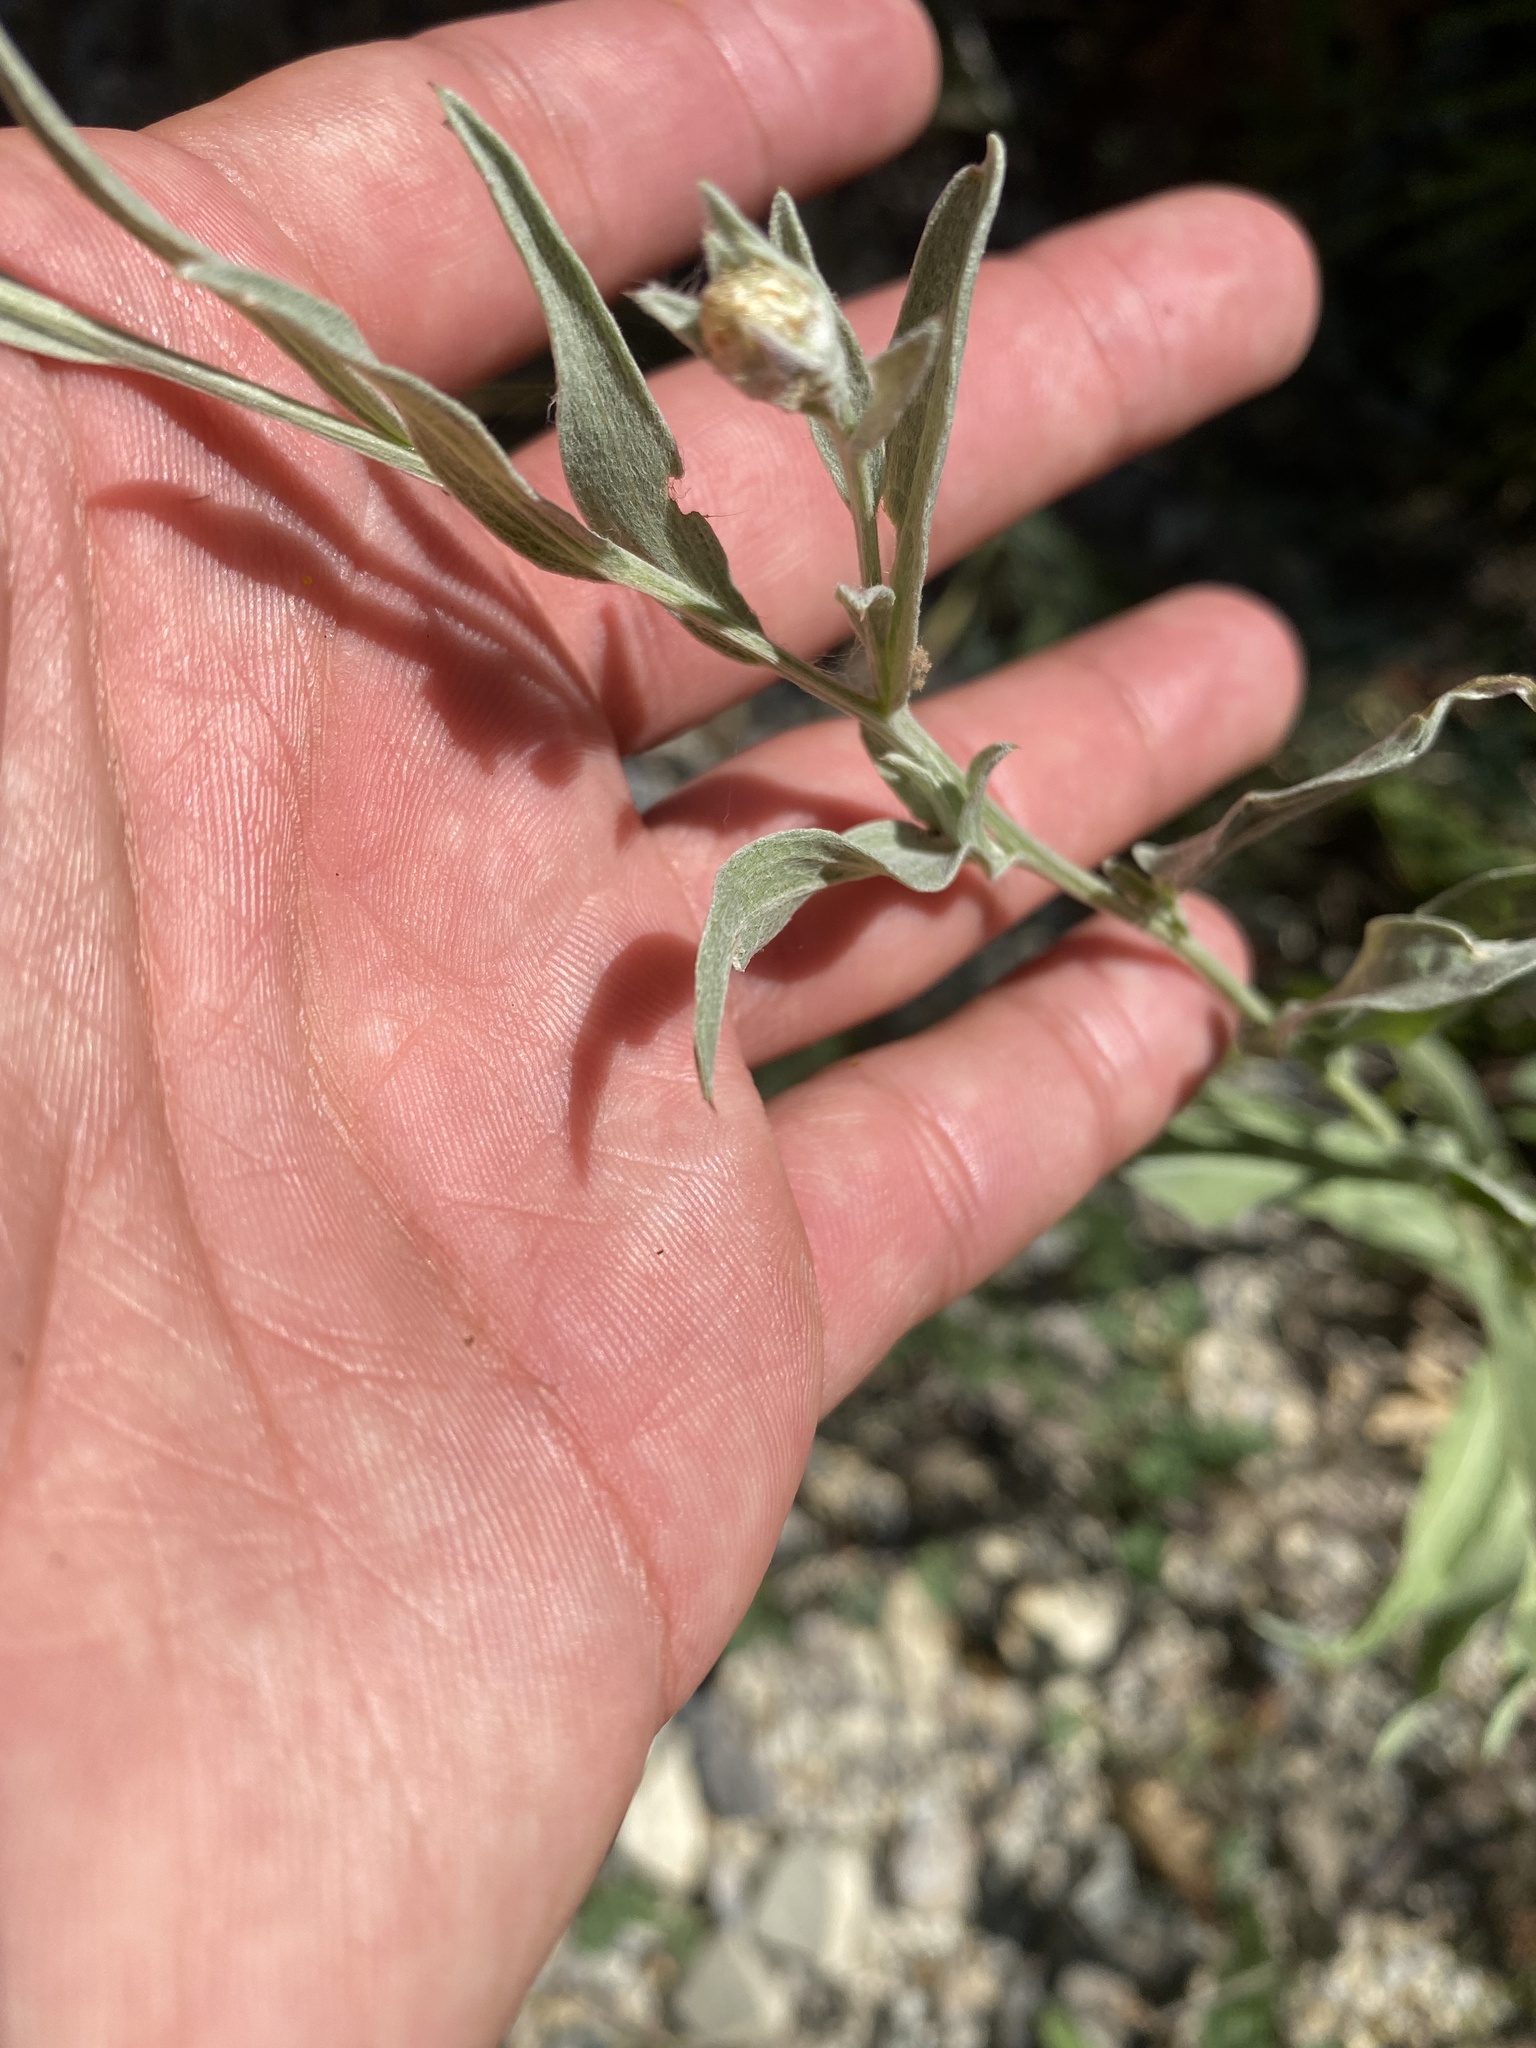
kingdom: Plantae
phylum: Tracheophyta
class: Magnoliopsida
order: Asterales
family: Asteraceae
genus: Centaurea
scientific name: Centaurea jacea
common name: Brown knapweed
